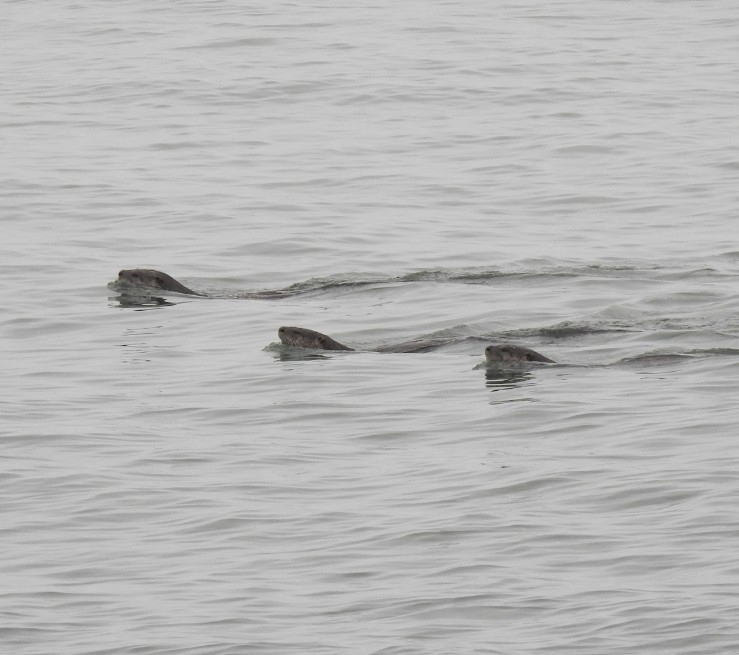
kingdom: Animalia
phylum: Chordata
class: Mammalia
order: Carnivora
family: Mustelidae
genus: Lontra
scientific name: Lontra canadensis
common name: North american river otter
